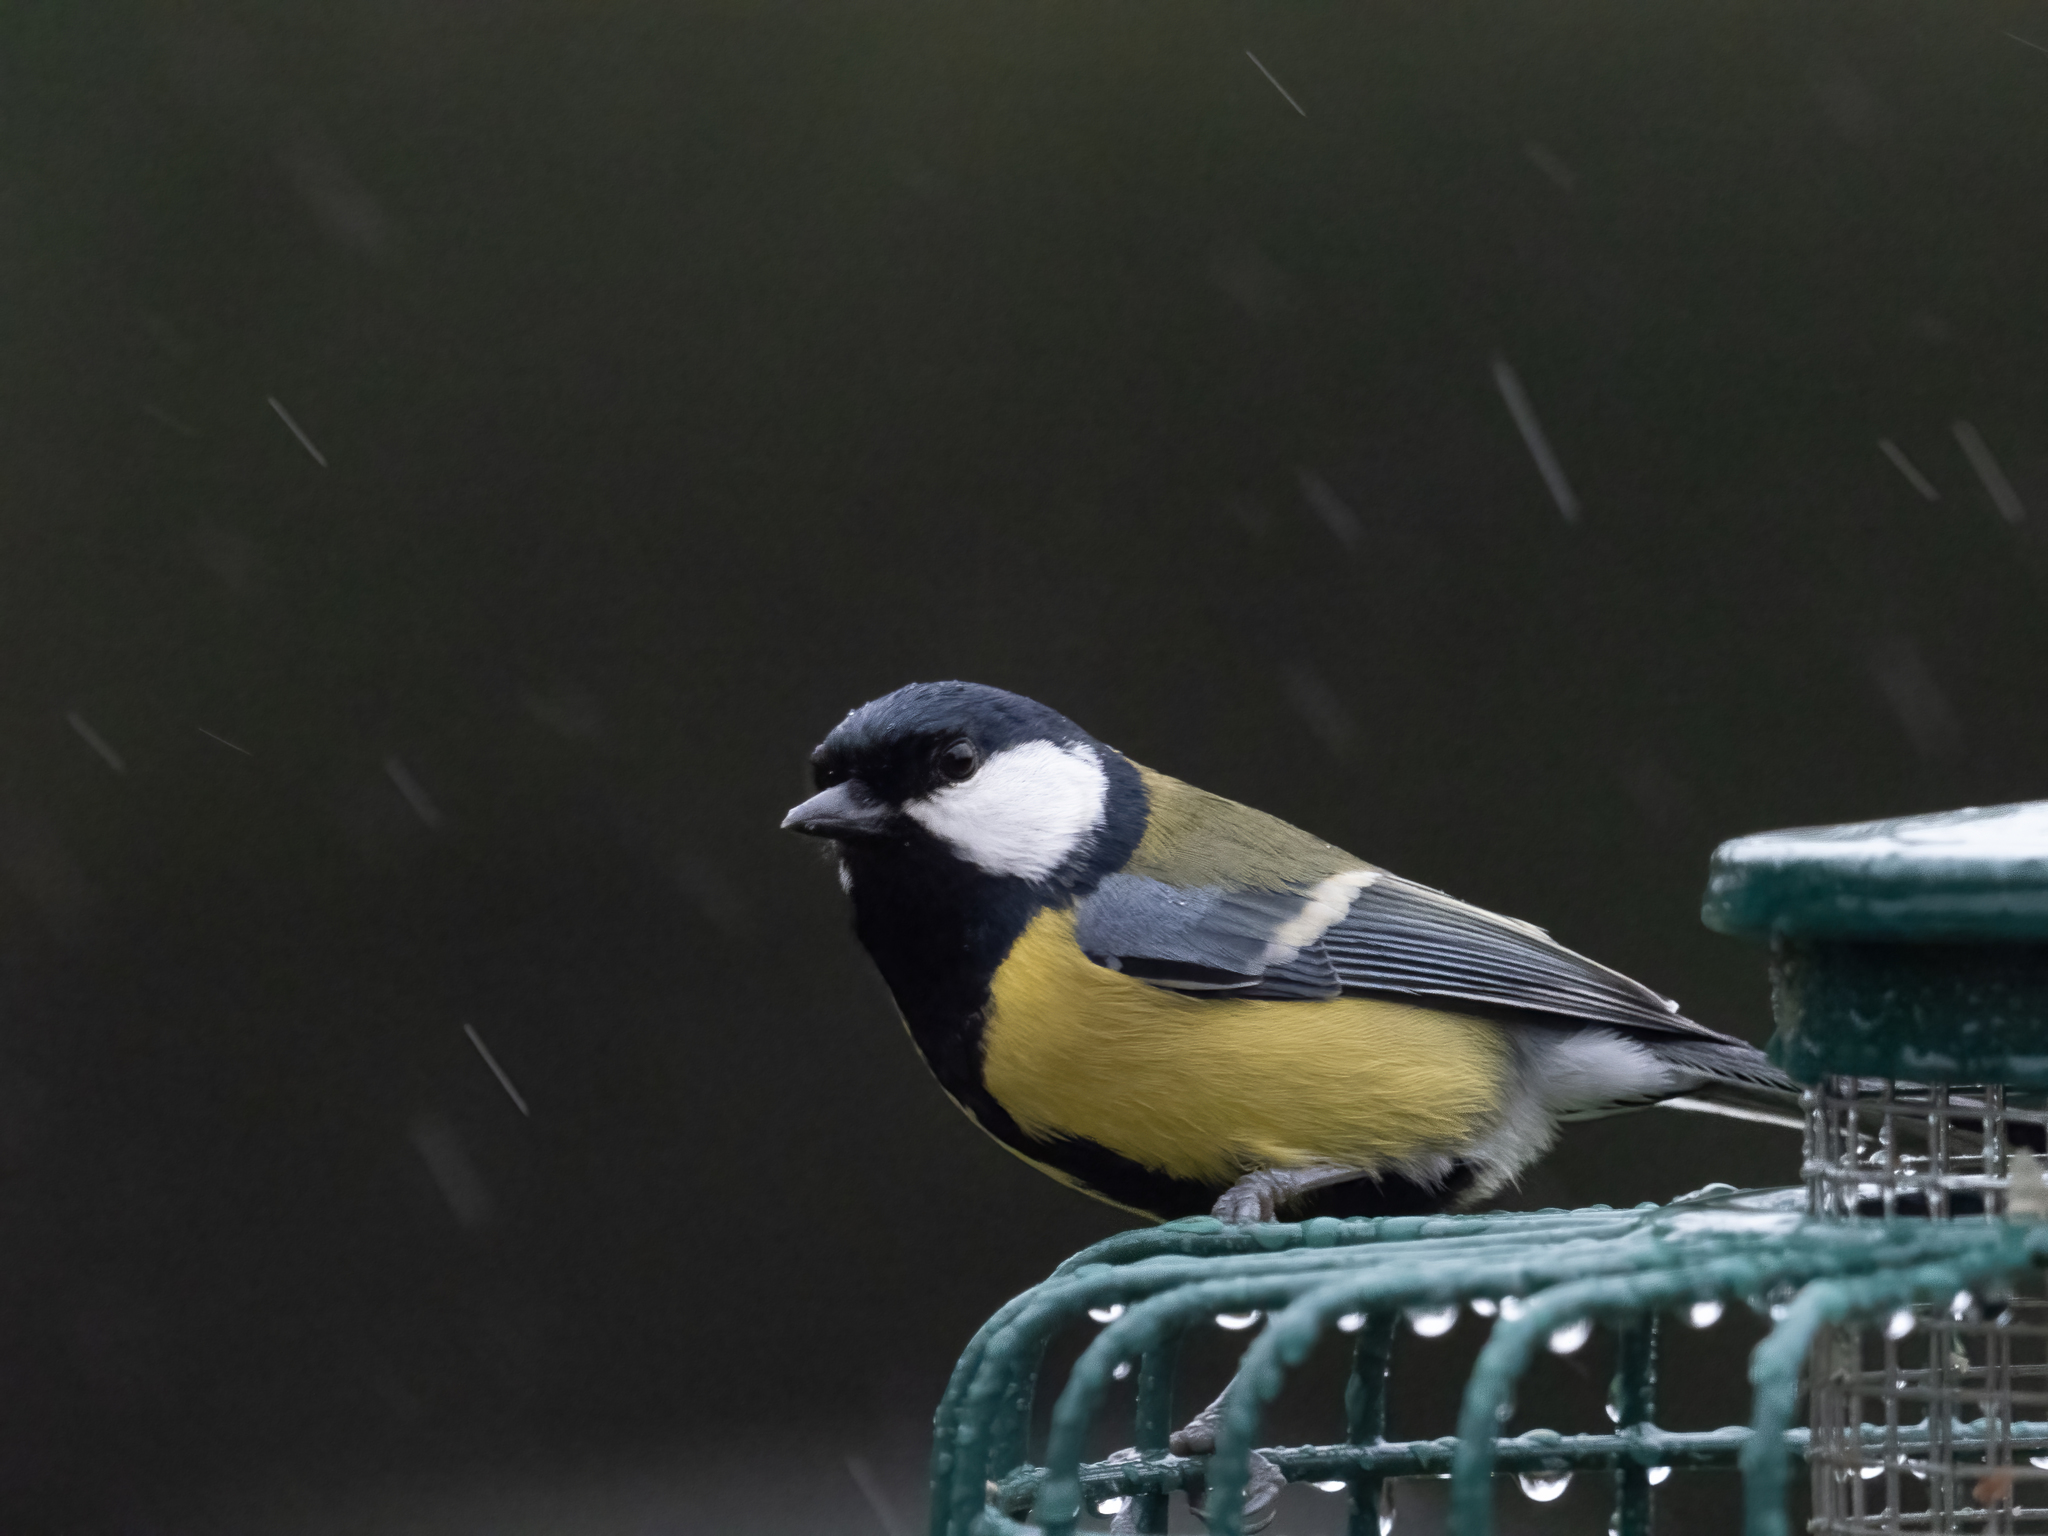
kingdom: Animalia
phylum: Chordata
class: Aves
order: Passeriformes
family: Paridae
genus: Parus
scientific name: Parus major
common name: Great tit
